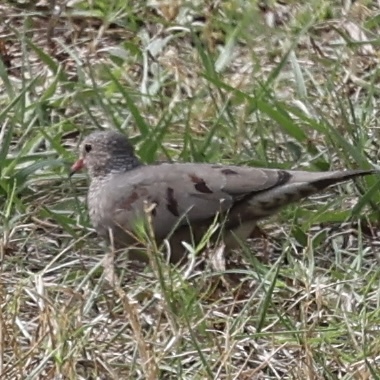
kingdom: Animalia
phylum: Chordata
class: Aves
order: Columbiformes
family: Columbidae
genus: Columbina
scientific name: Columbina passerina
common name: Common ground-dove
